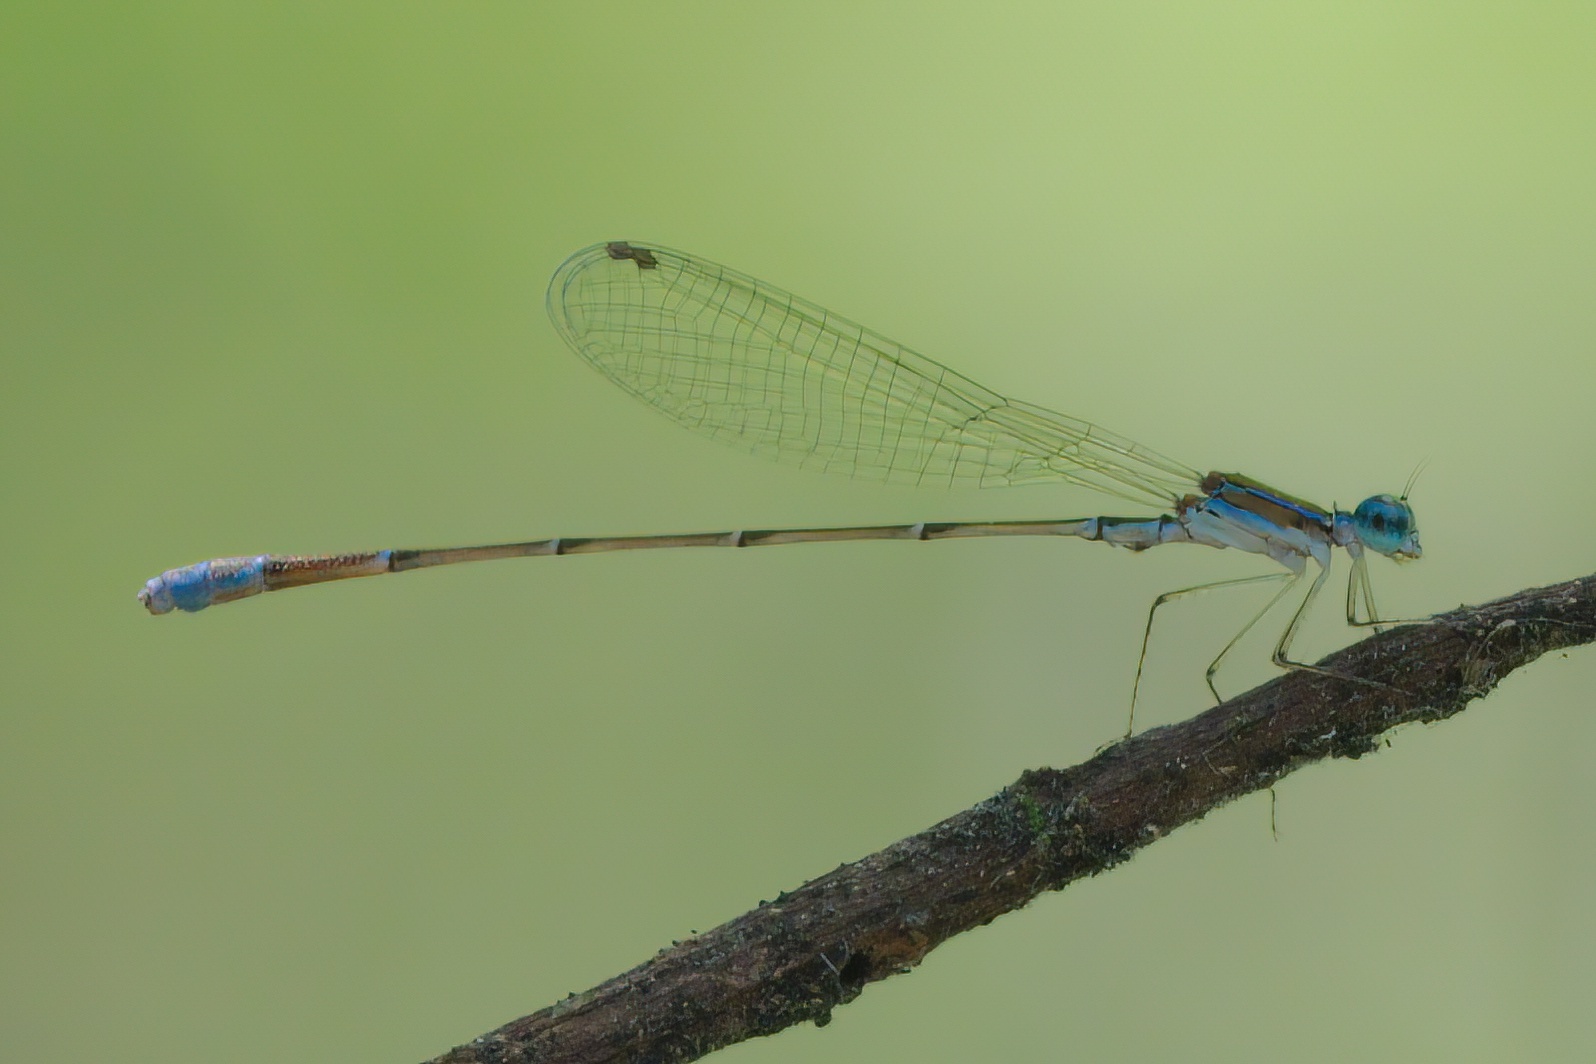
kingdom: Animalia
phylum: Arthropoda
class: Insecta
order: Odonata
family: Coenagrionidae
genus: Nehalennia
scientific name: Nehalennia pallidula
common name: Everglades sprite
